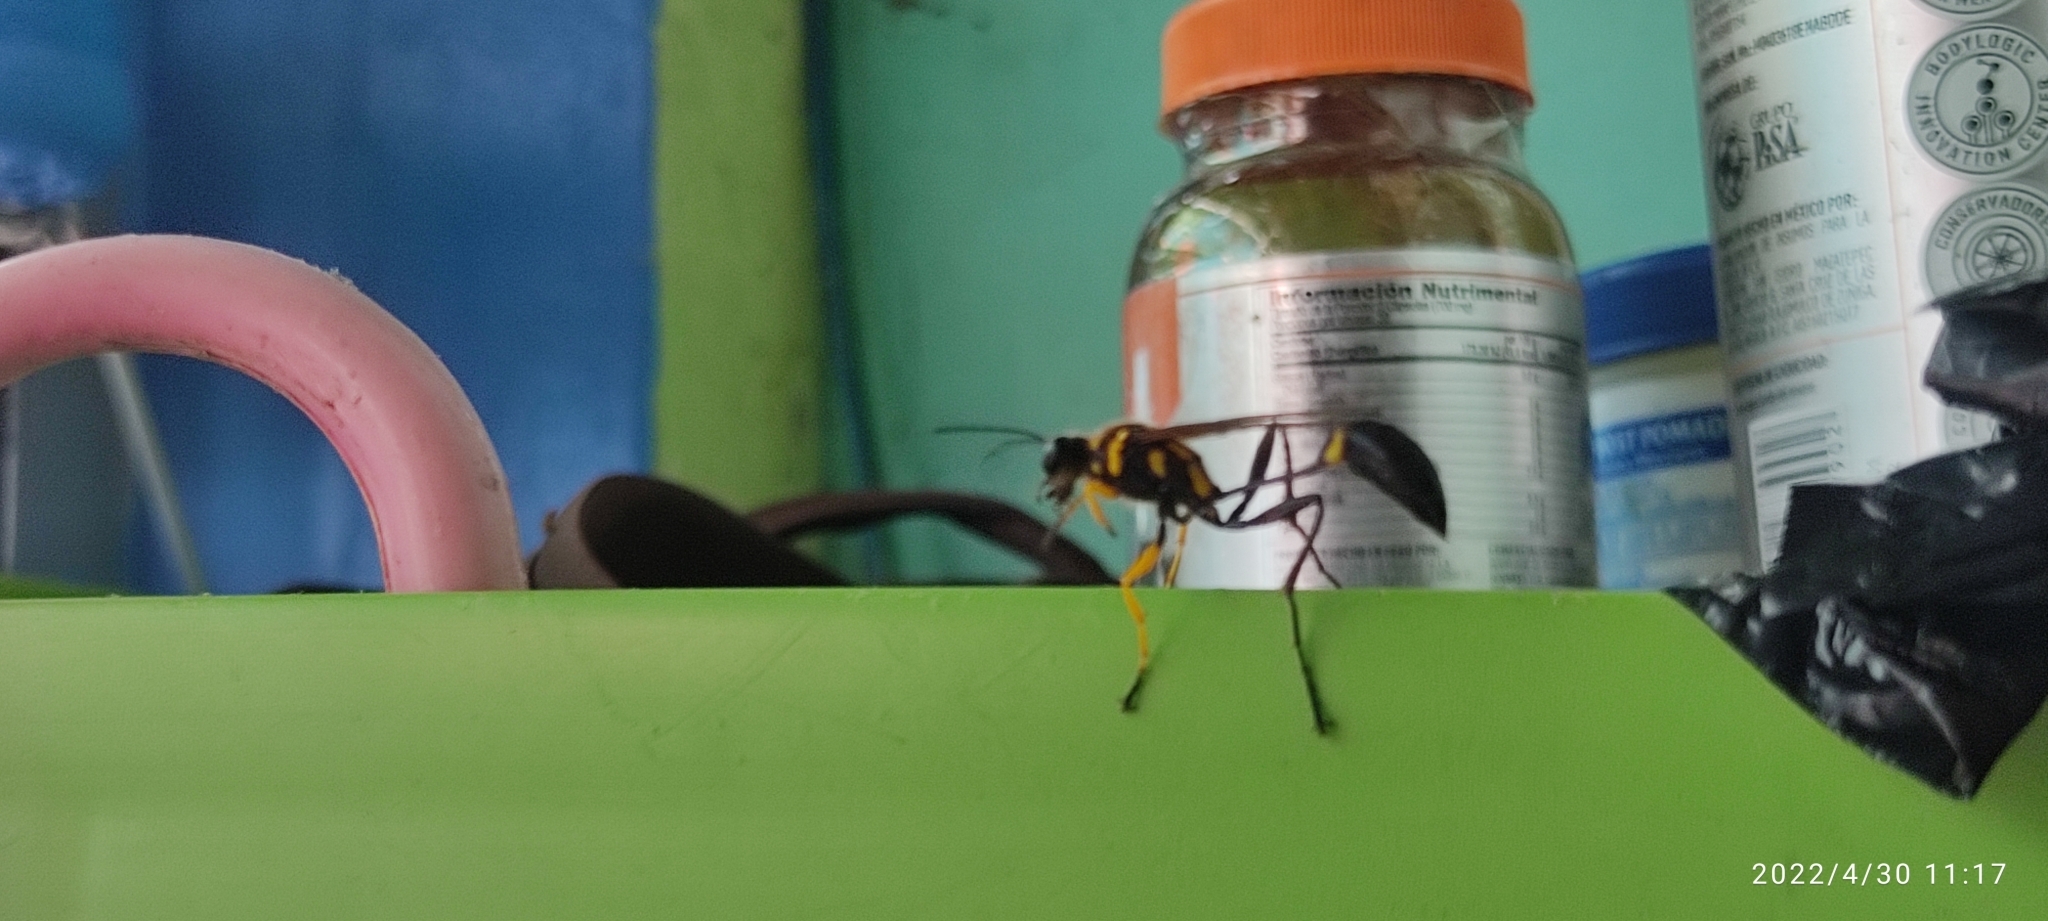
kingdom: Animalia
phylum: Arthropoda
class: Insecta
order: Hymenoptera
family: Sphecidae
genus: Sceliphron
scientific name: Sceliphron fistularium
